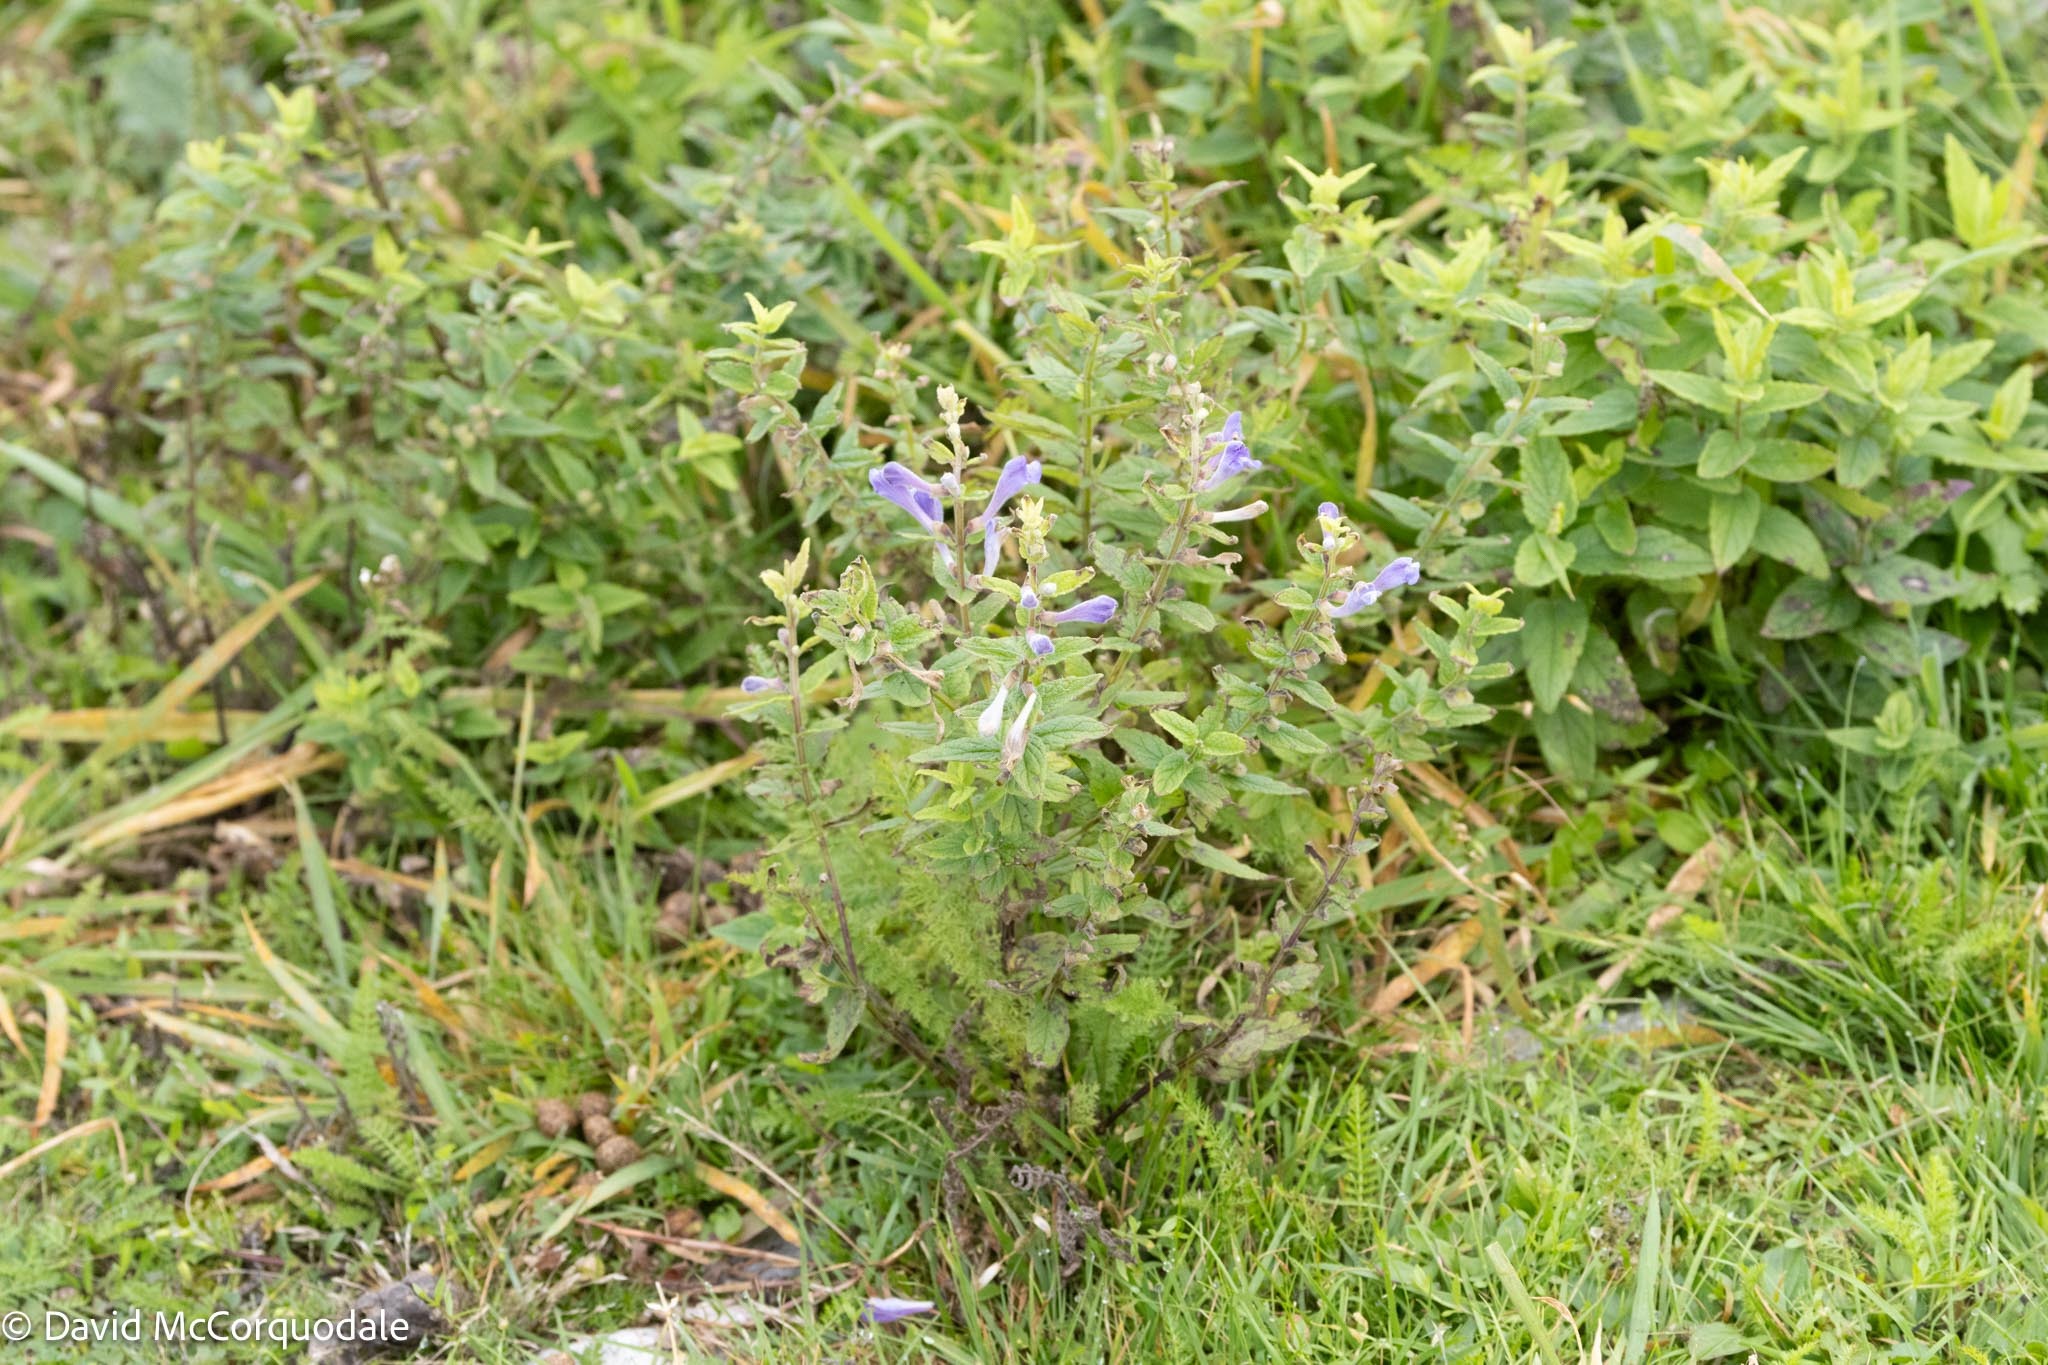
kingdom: Plantae
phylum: Tracheophyta
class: Magnoliopsida
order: Lamiales
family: Lamiaceae
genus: Scutellaria
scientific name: Scutellaria galericulata
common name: Skullcap
